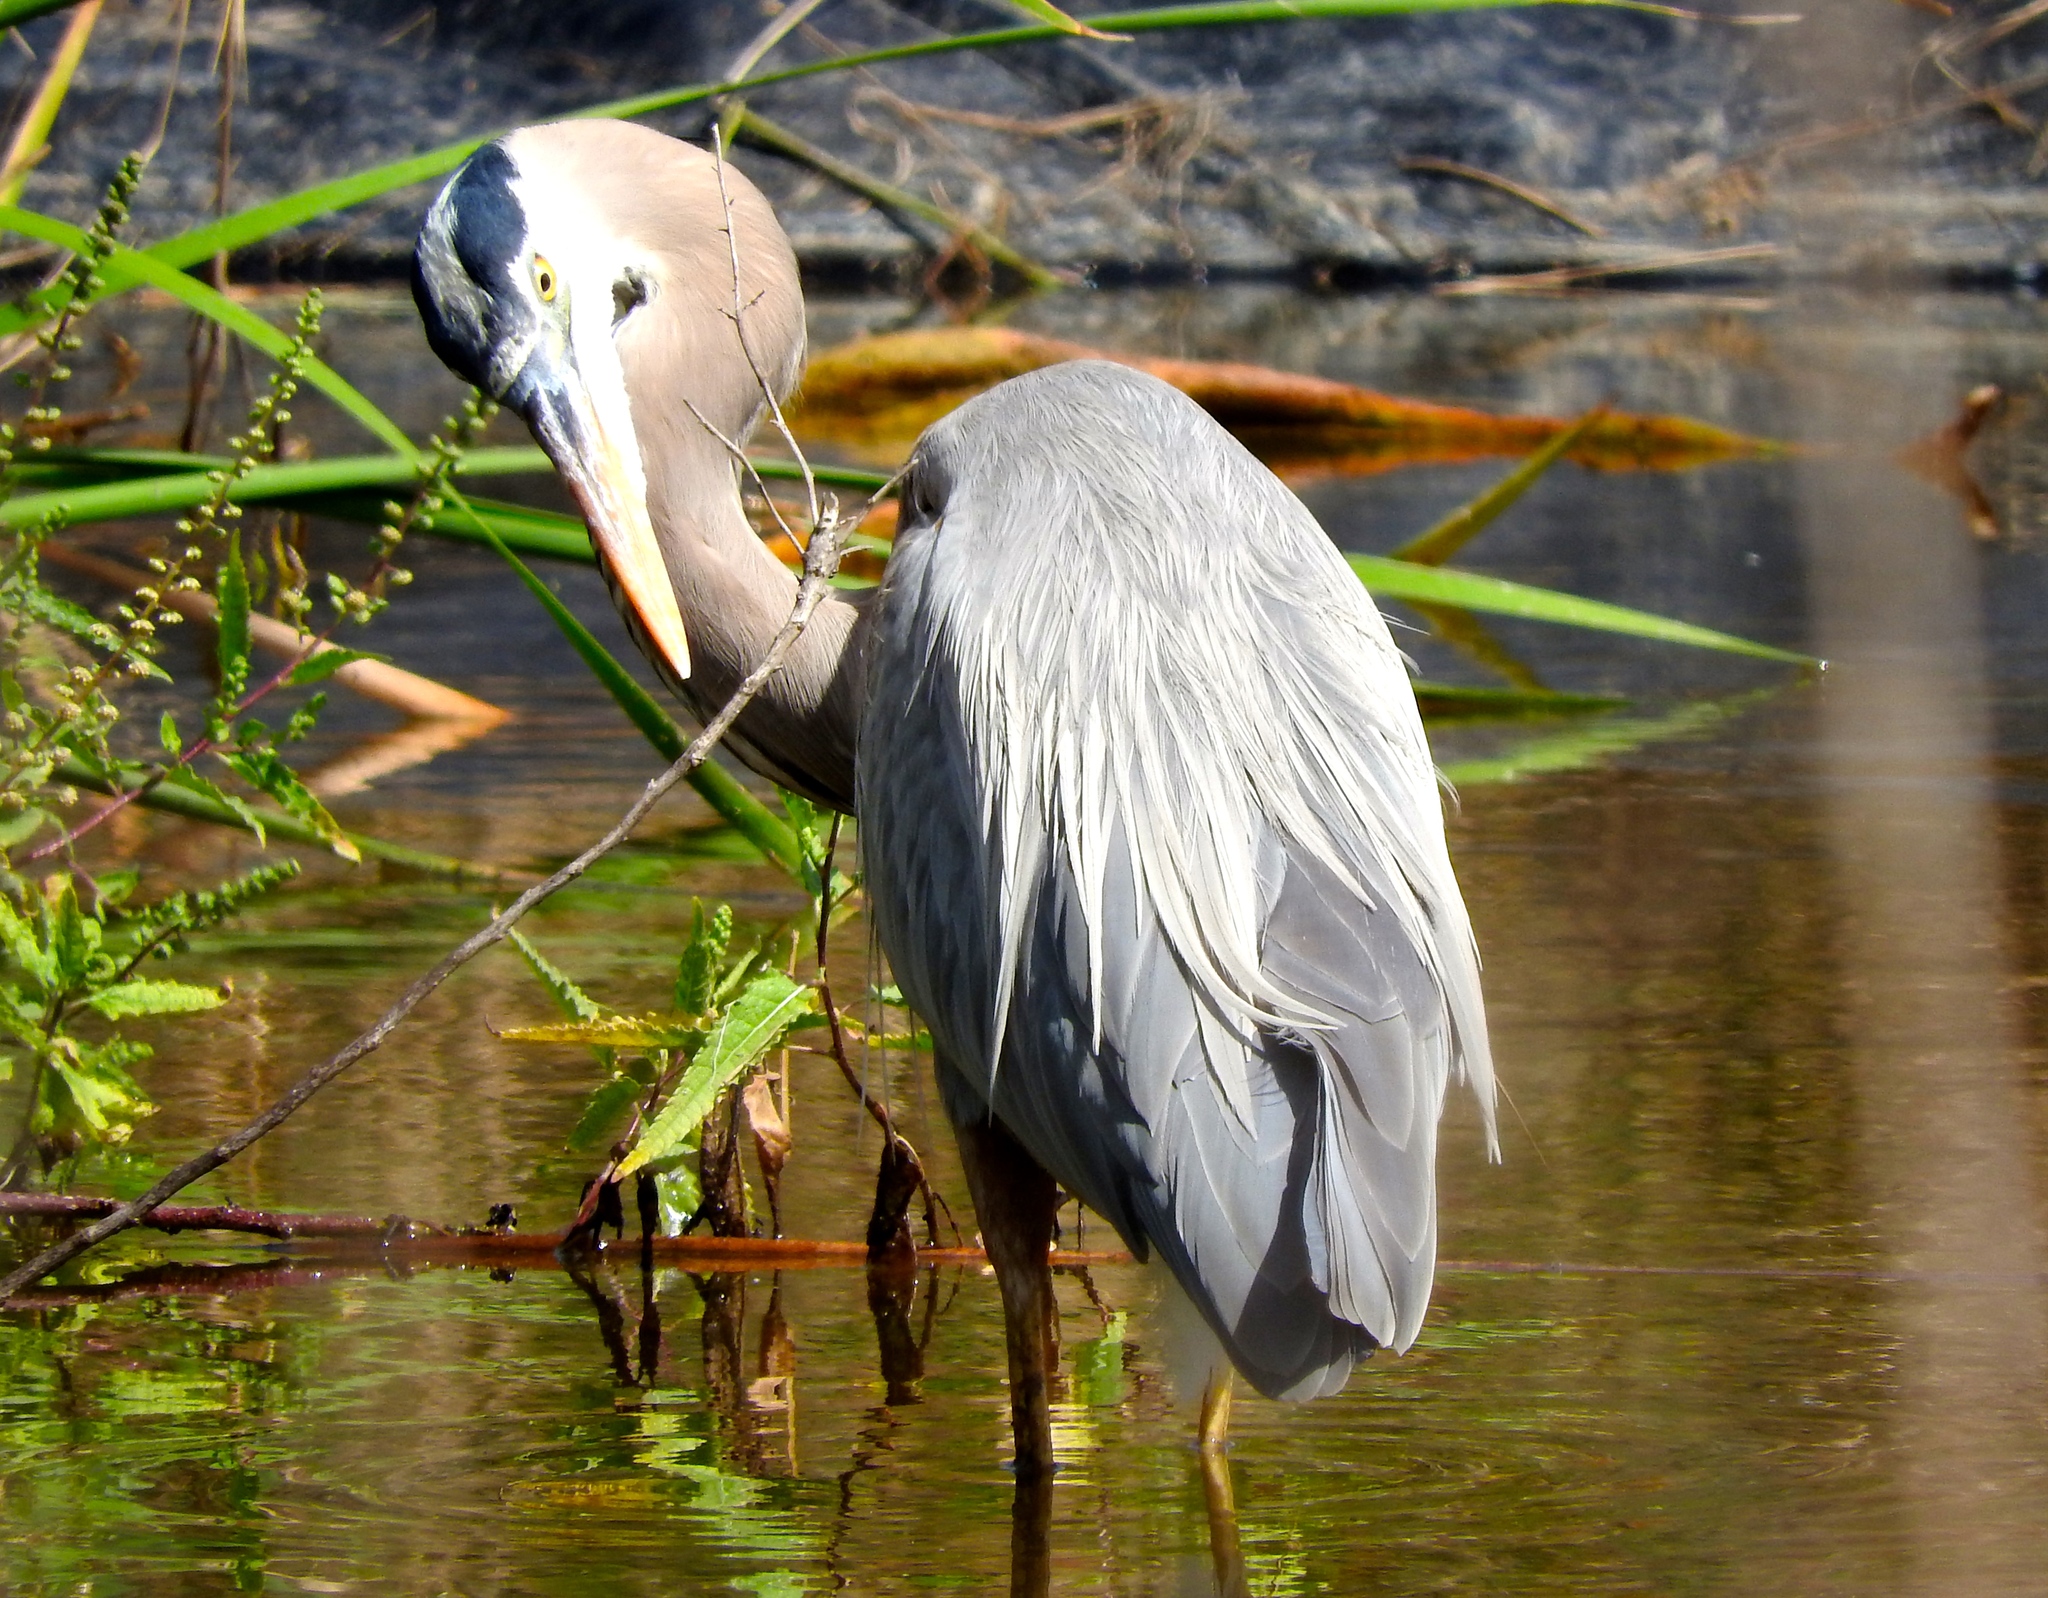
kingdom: Animalia
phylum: Chordata
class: Aves
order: Pelecaniformes
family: Ardeidae
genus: Ardea
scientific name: Ardea herodias
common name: Great blue heron
